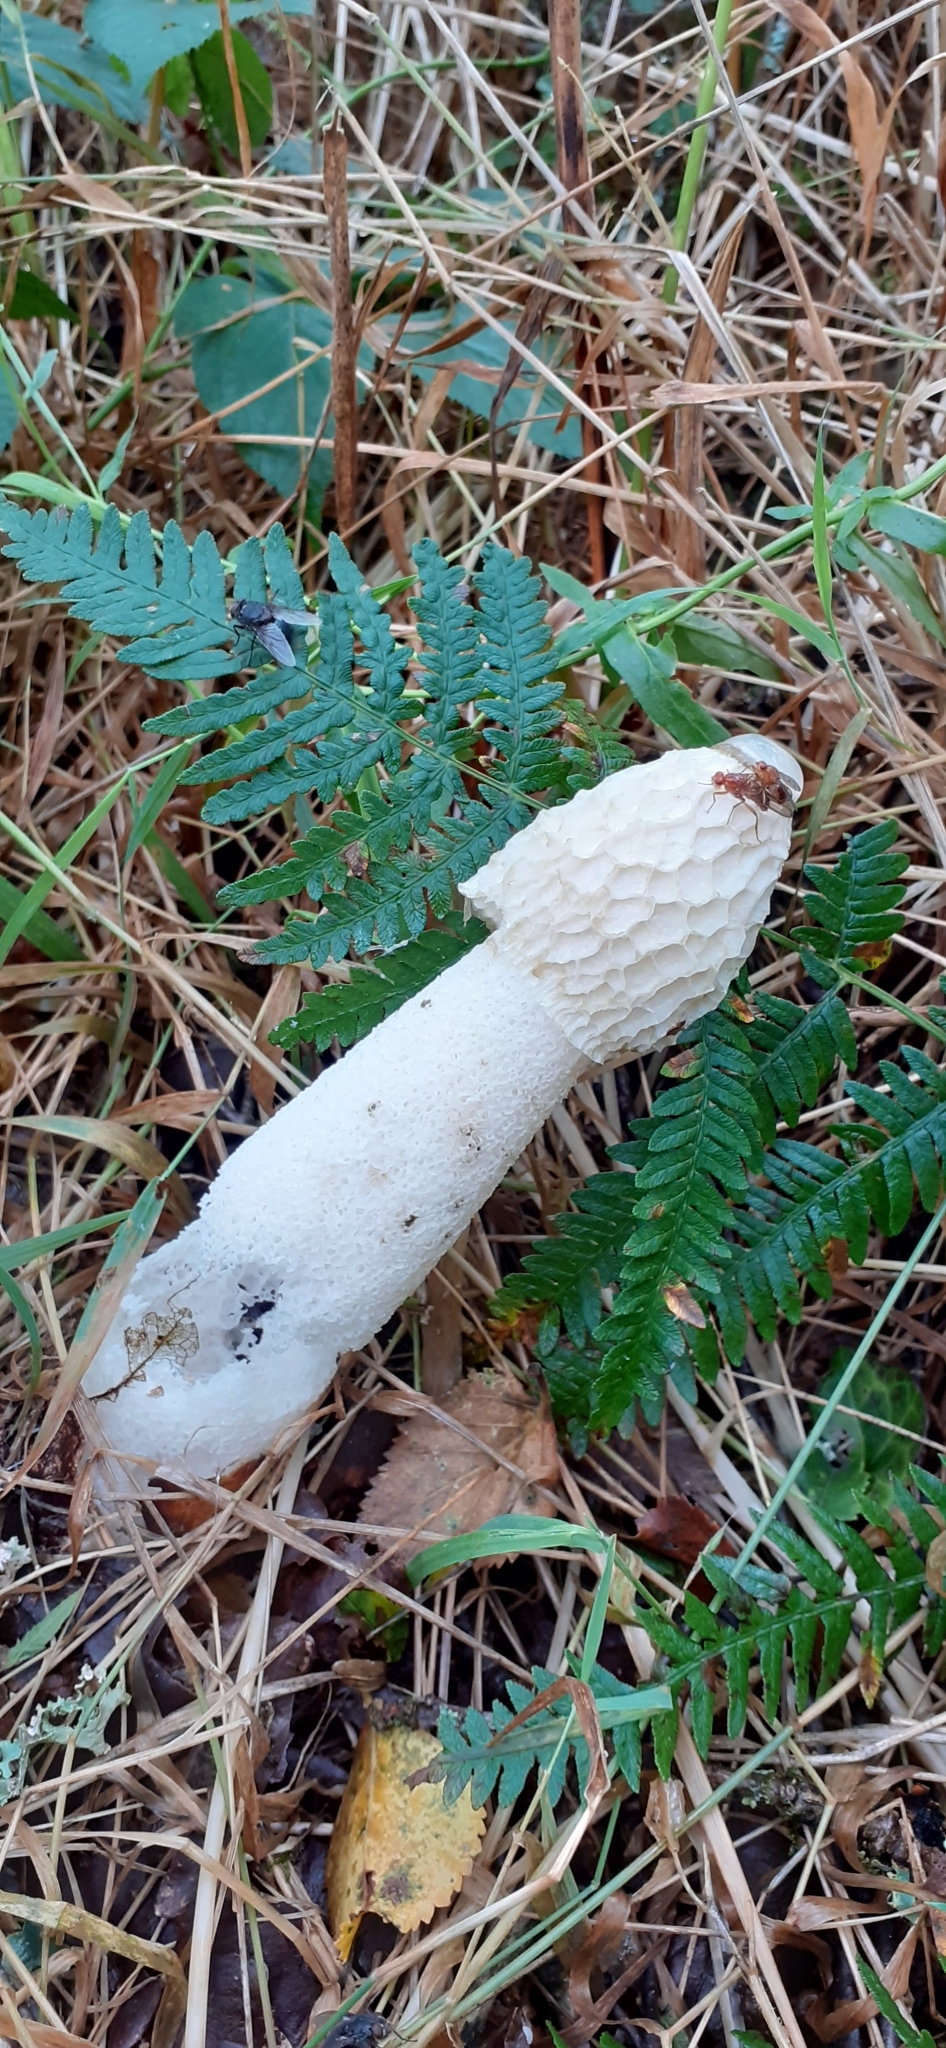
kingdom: Fungi
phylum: Basidiomycota
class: Agaricomycetes
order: Phallales
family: Phallaceae
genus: Phallus
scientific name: Phallus impudicus
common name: Common stinkhorn
